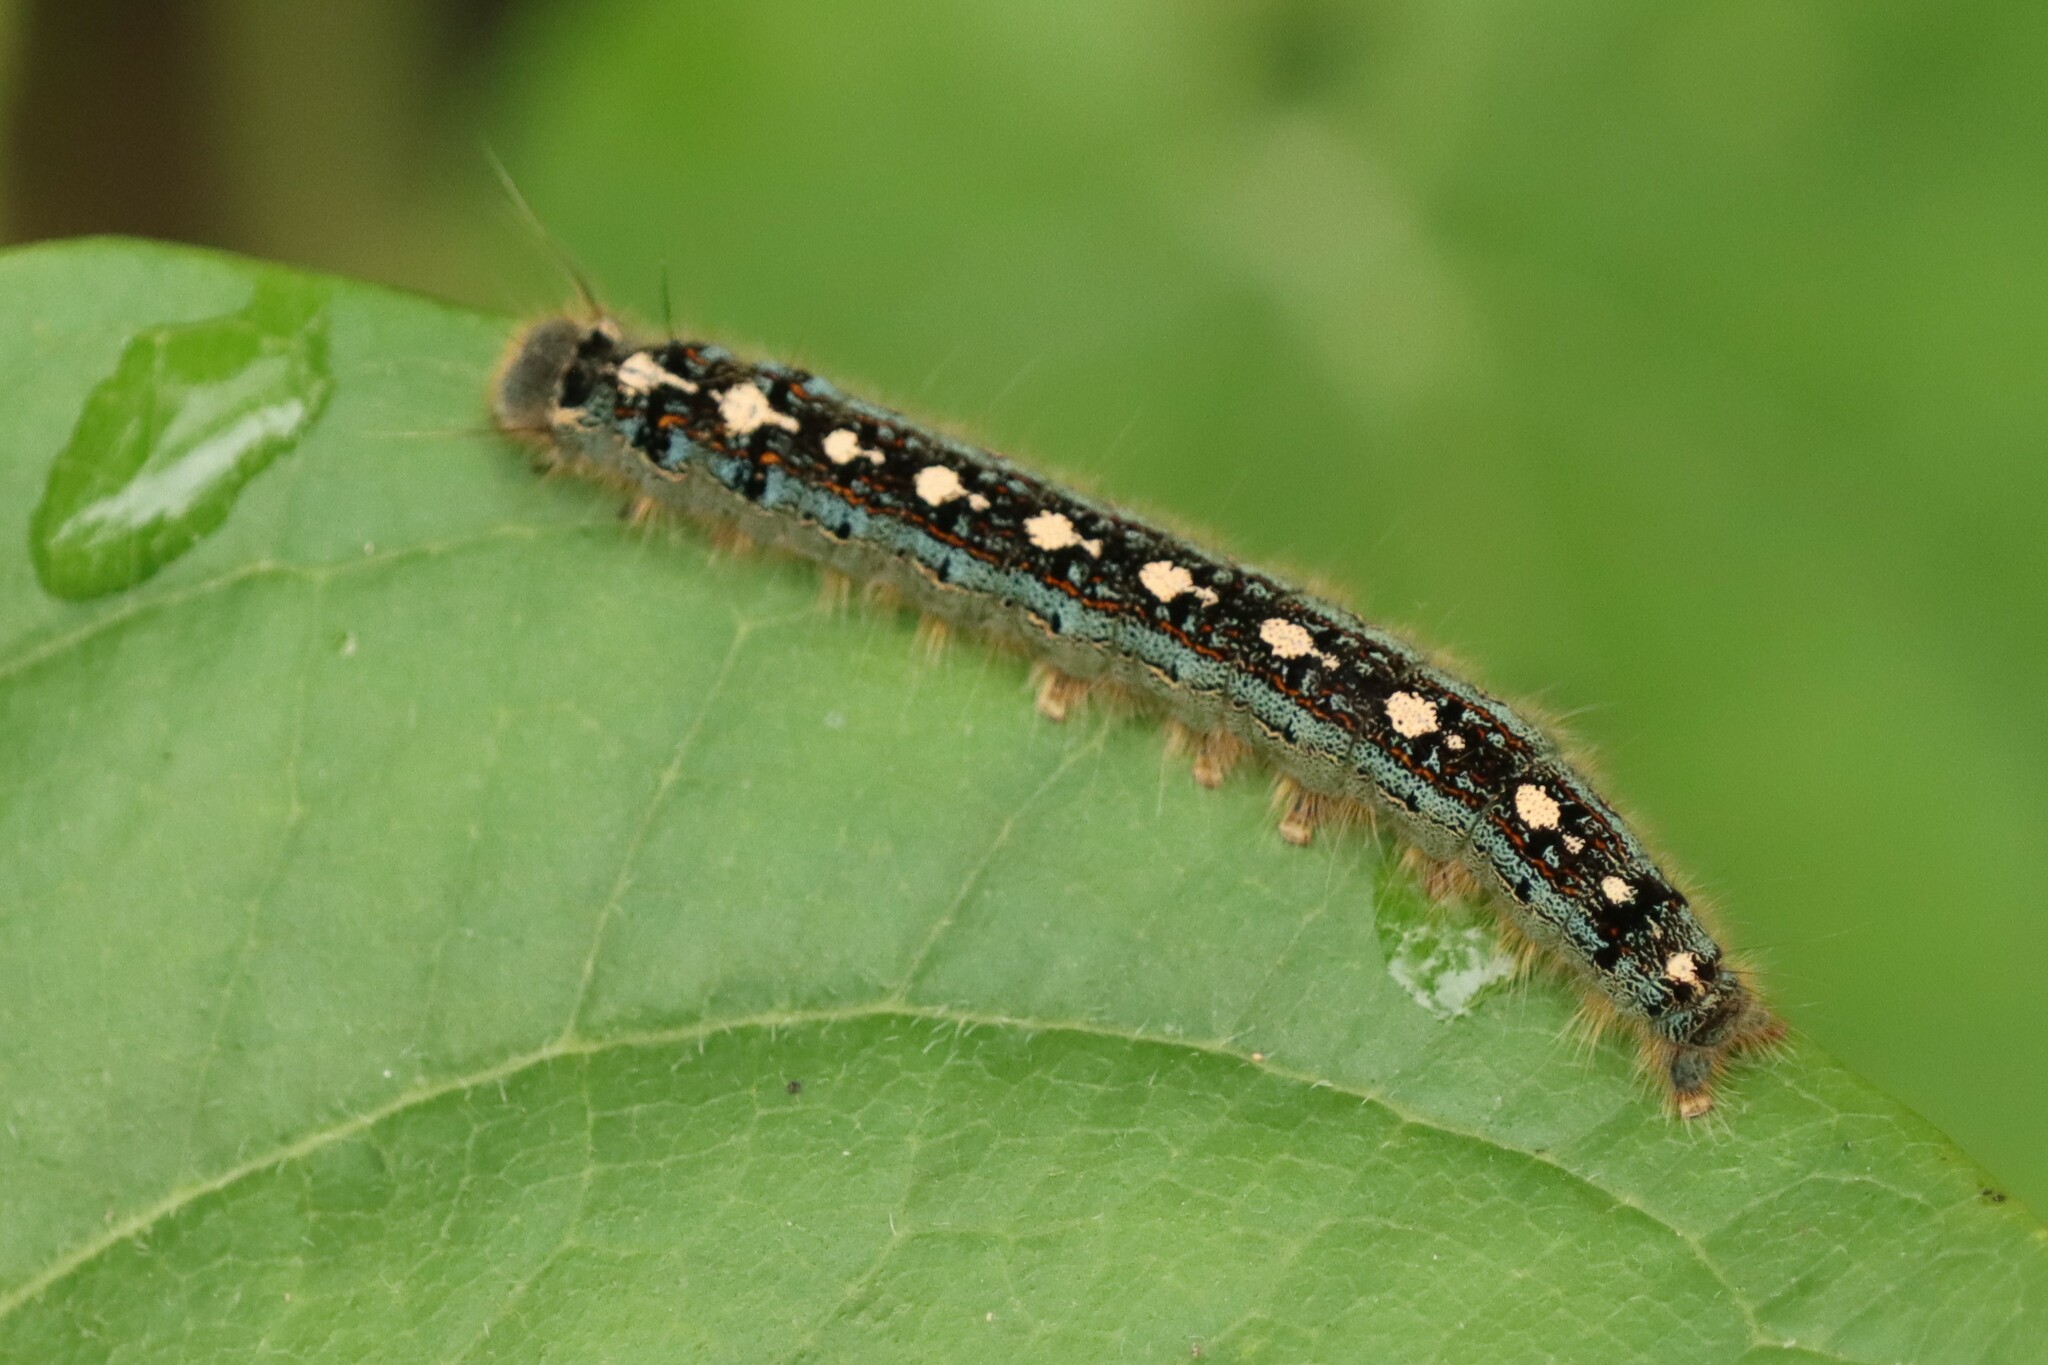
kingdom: Animalia
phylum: Arthropoda
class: Insecta
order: Lepidoptera
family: Lasiocampidae
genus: Malacosoma
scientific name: Malacosoma disstria
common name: Forest tent caterpillar
